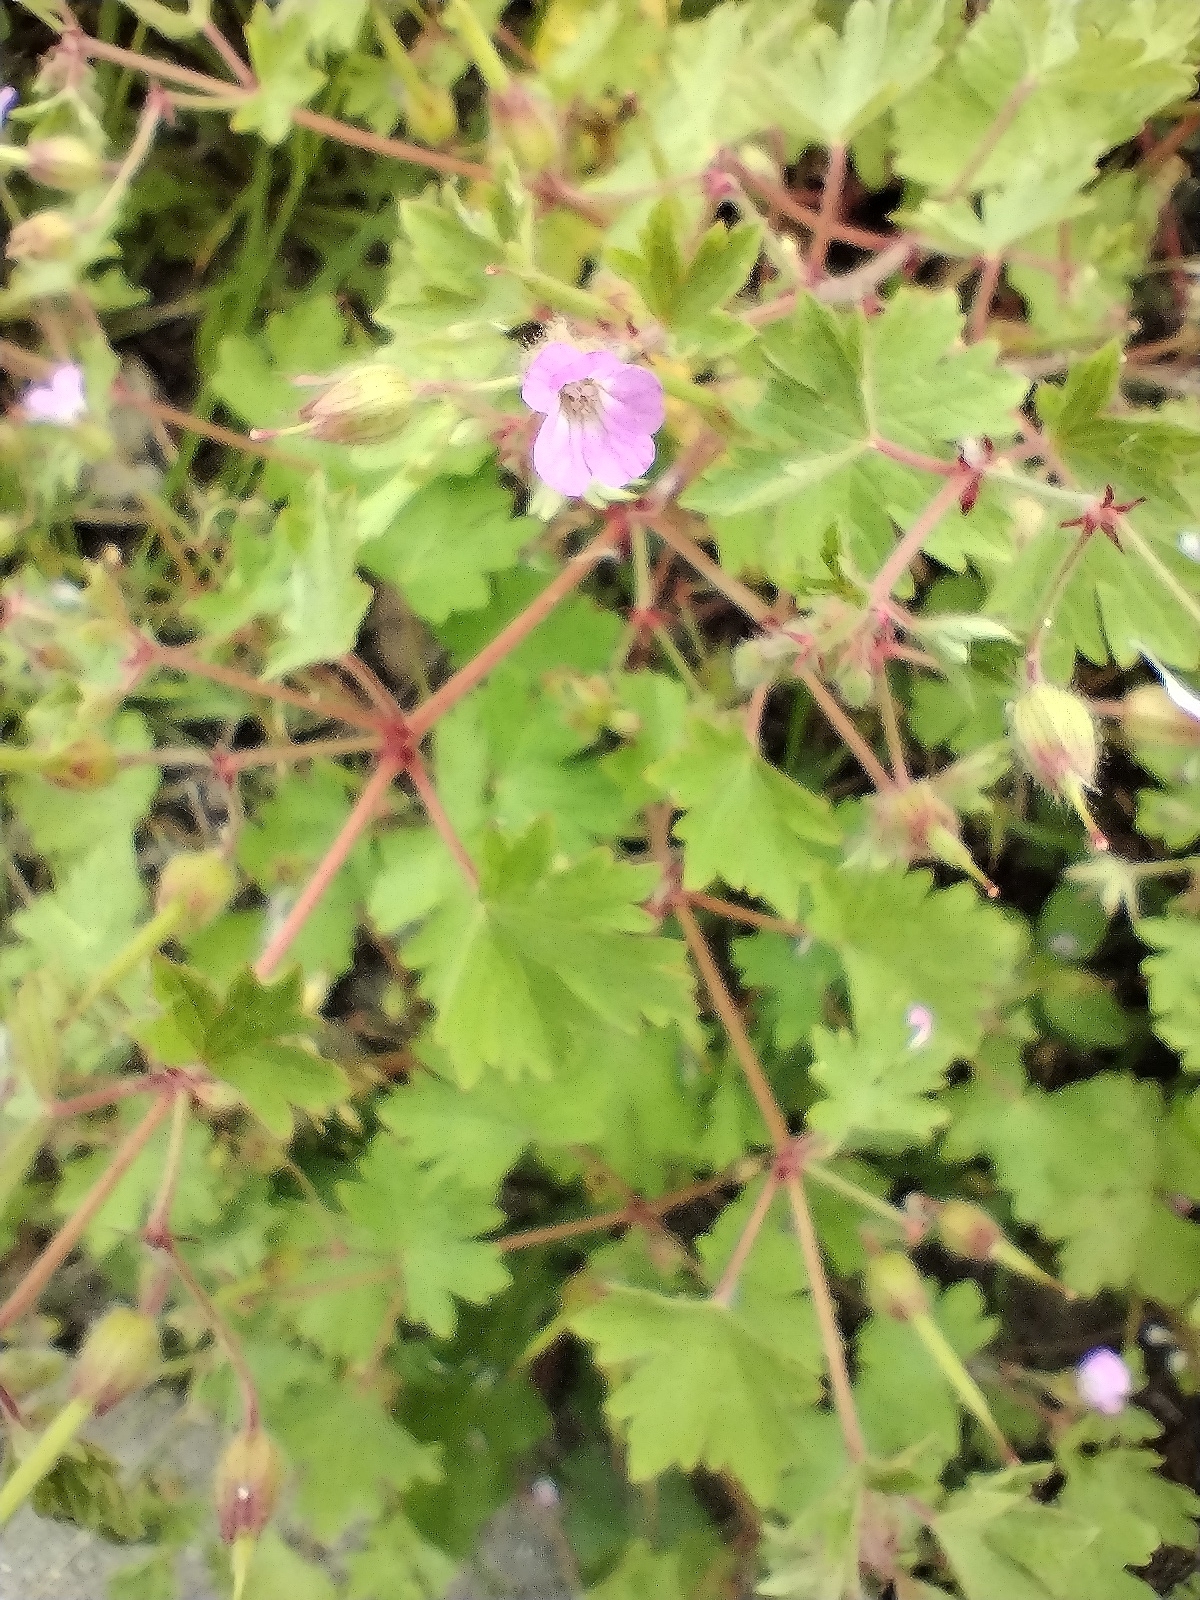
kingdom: Plantae
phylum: Tracheophyta
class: Magnoliopsida
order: Geraniales
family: Geraniaceae
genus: Geranium
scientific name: Geranium rotundifolium
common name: Round-leaved crane's-bill
